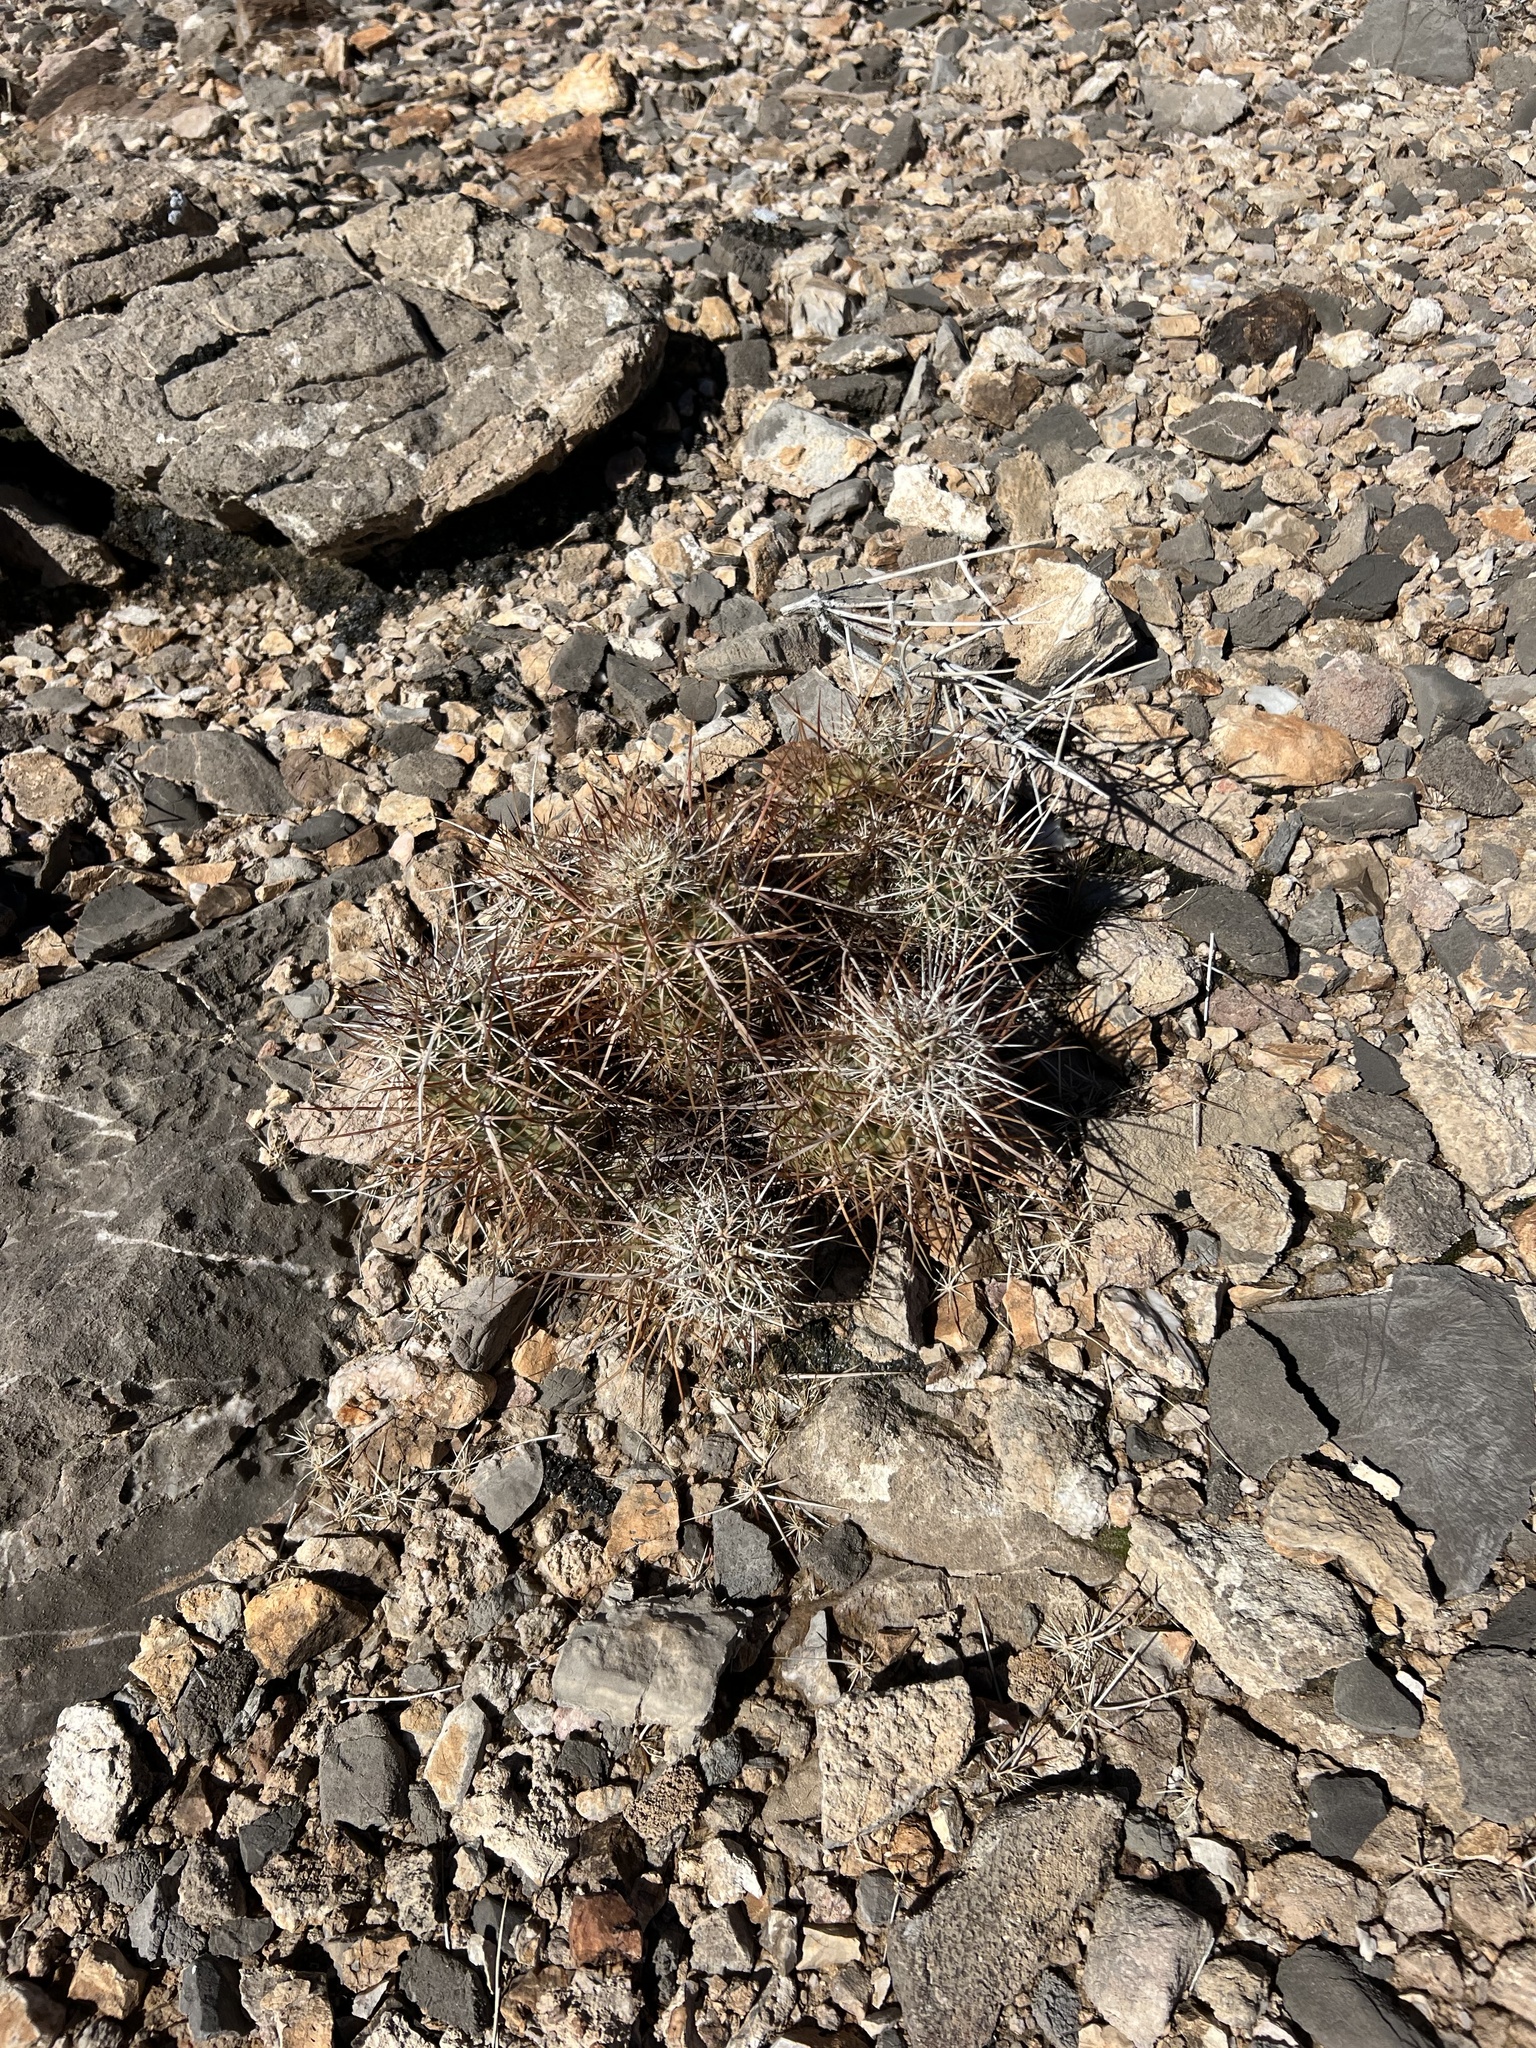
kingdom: Plantae
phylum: Tracheophyta
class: Magnoliopsida
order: Caryophyllales
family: Cactaceae
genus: Echinocereus
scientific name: Echinocereus engelmannii
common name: Engelmann's hedgehog cactus
